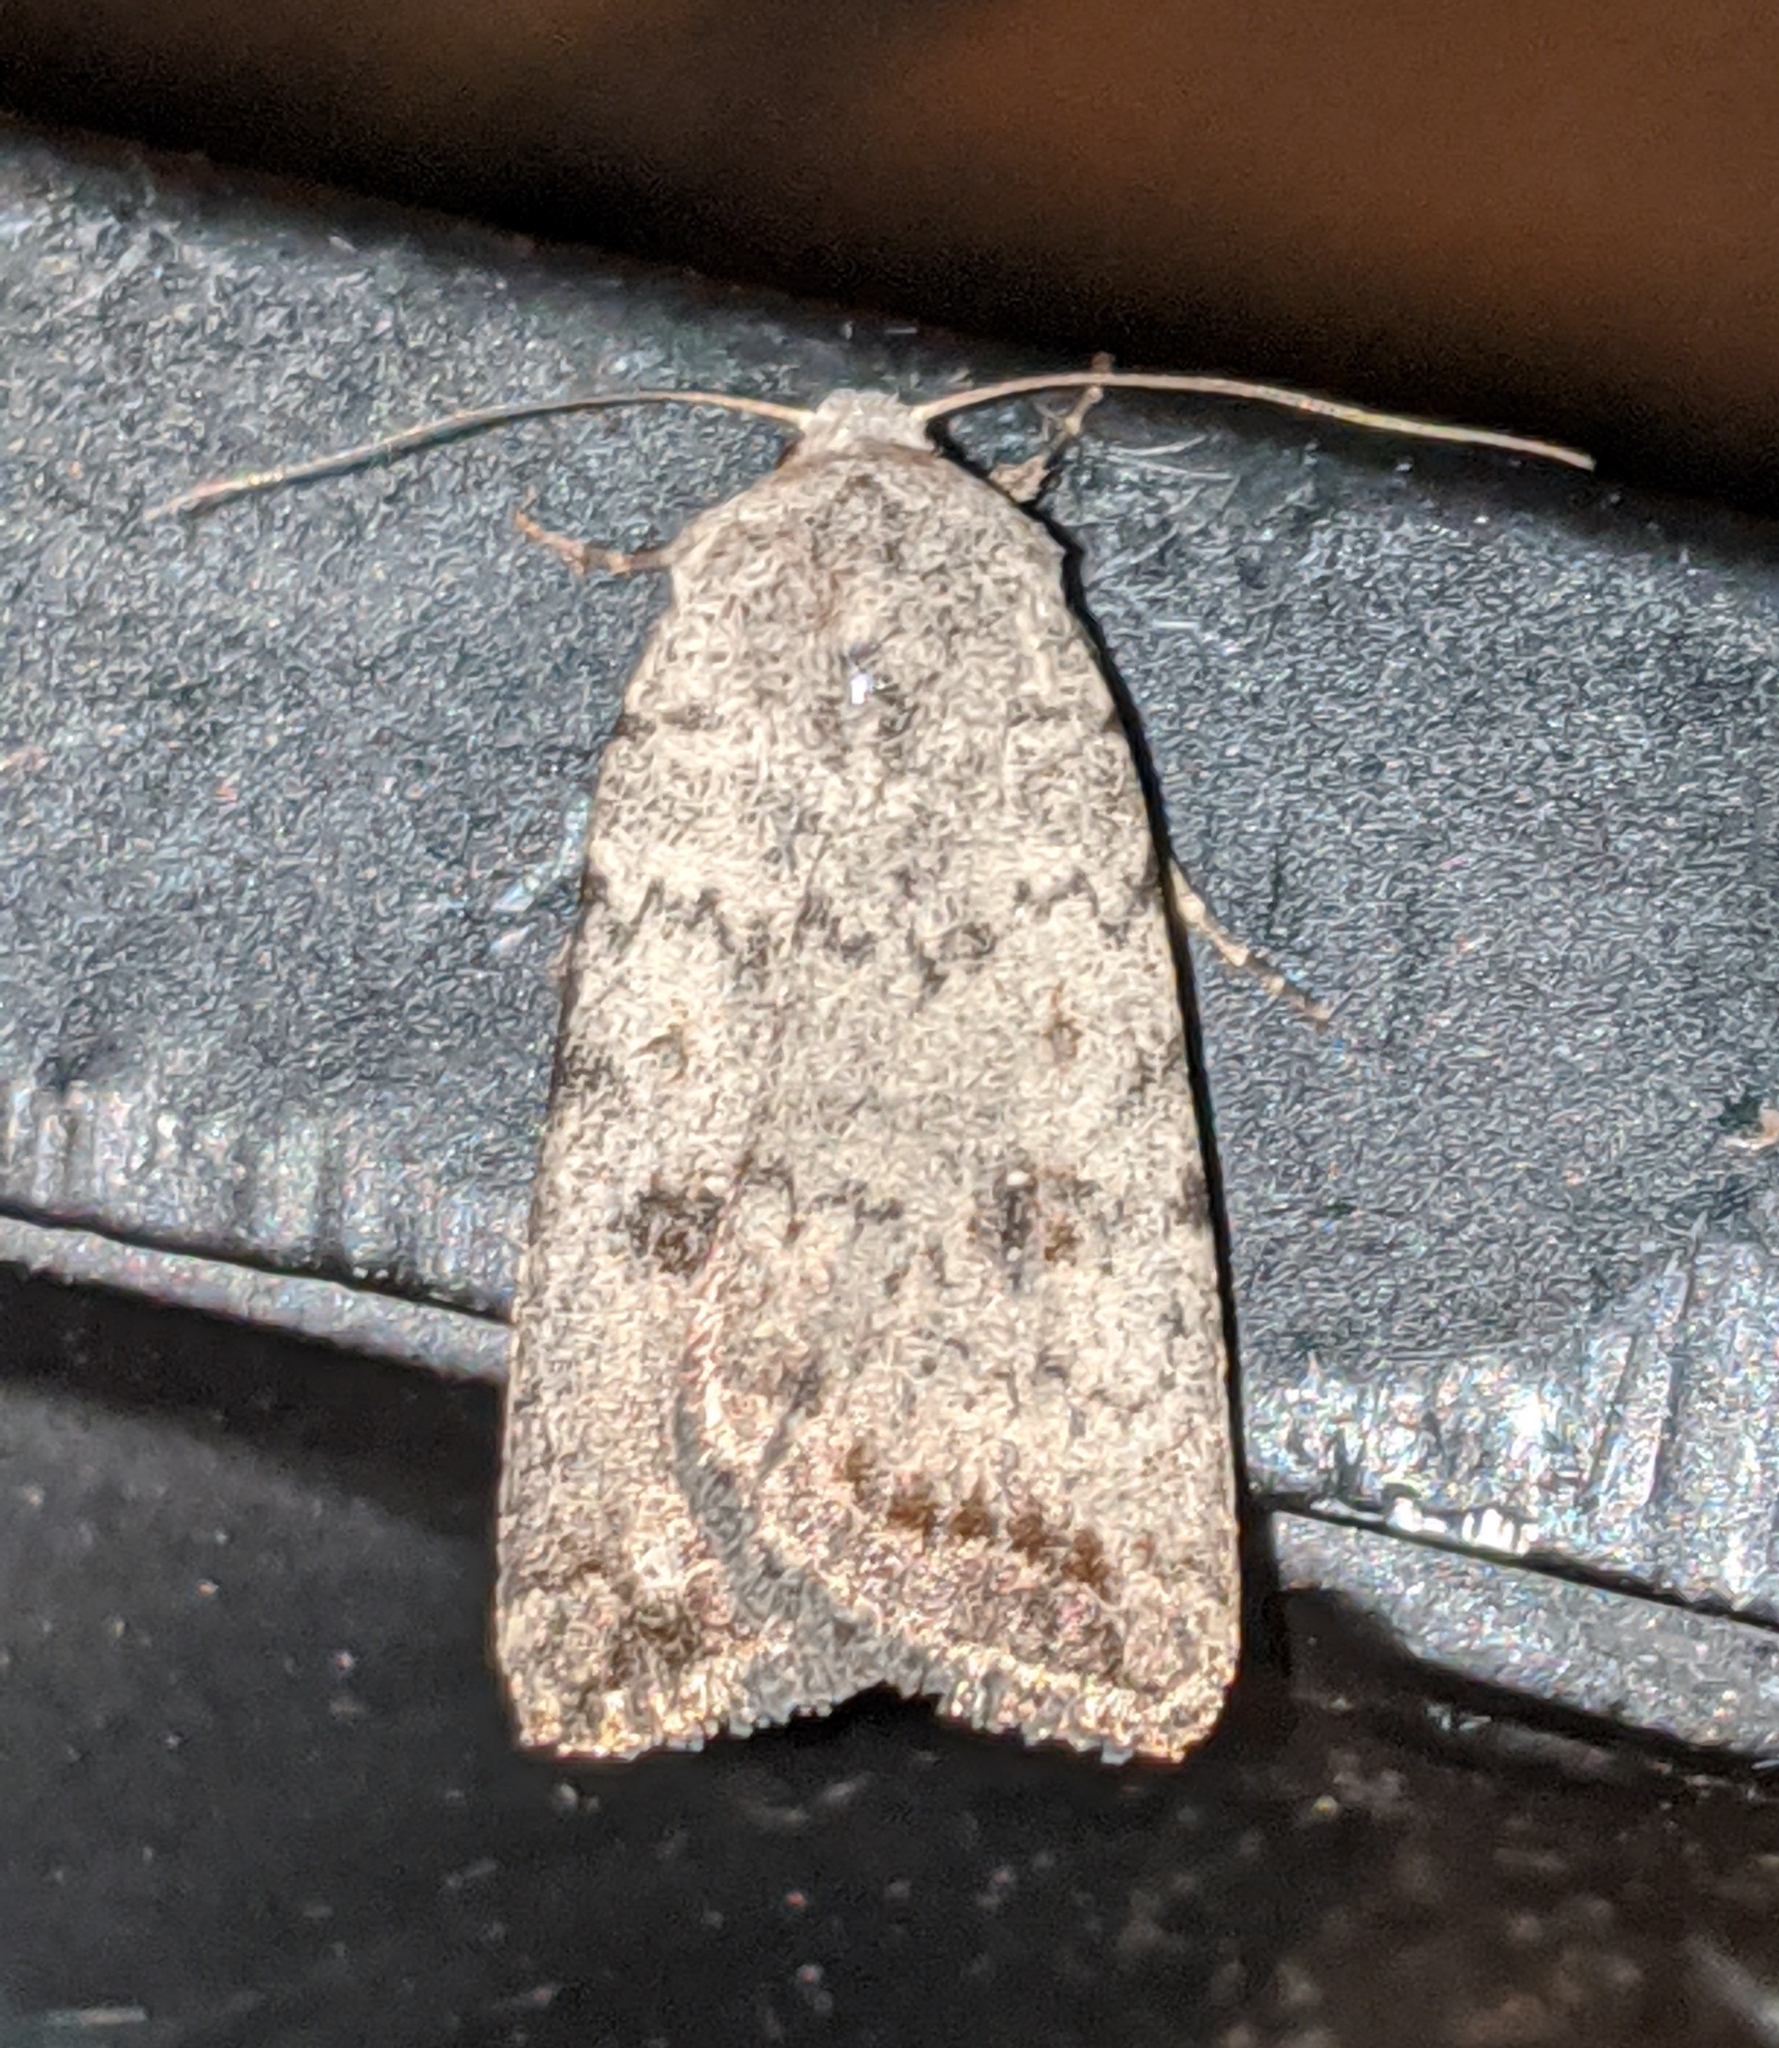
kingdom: Animalia
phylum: Arthropoda
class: Insecta
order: Lepidoptera
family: Noctuidae
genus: Caradrina
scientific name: Caradrina montana
